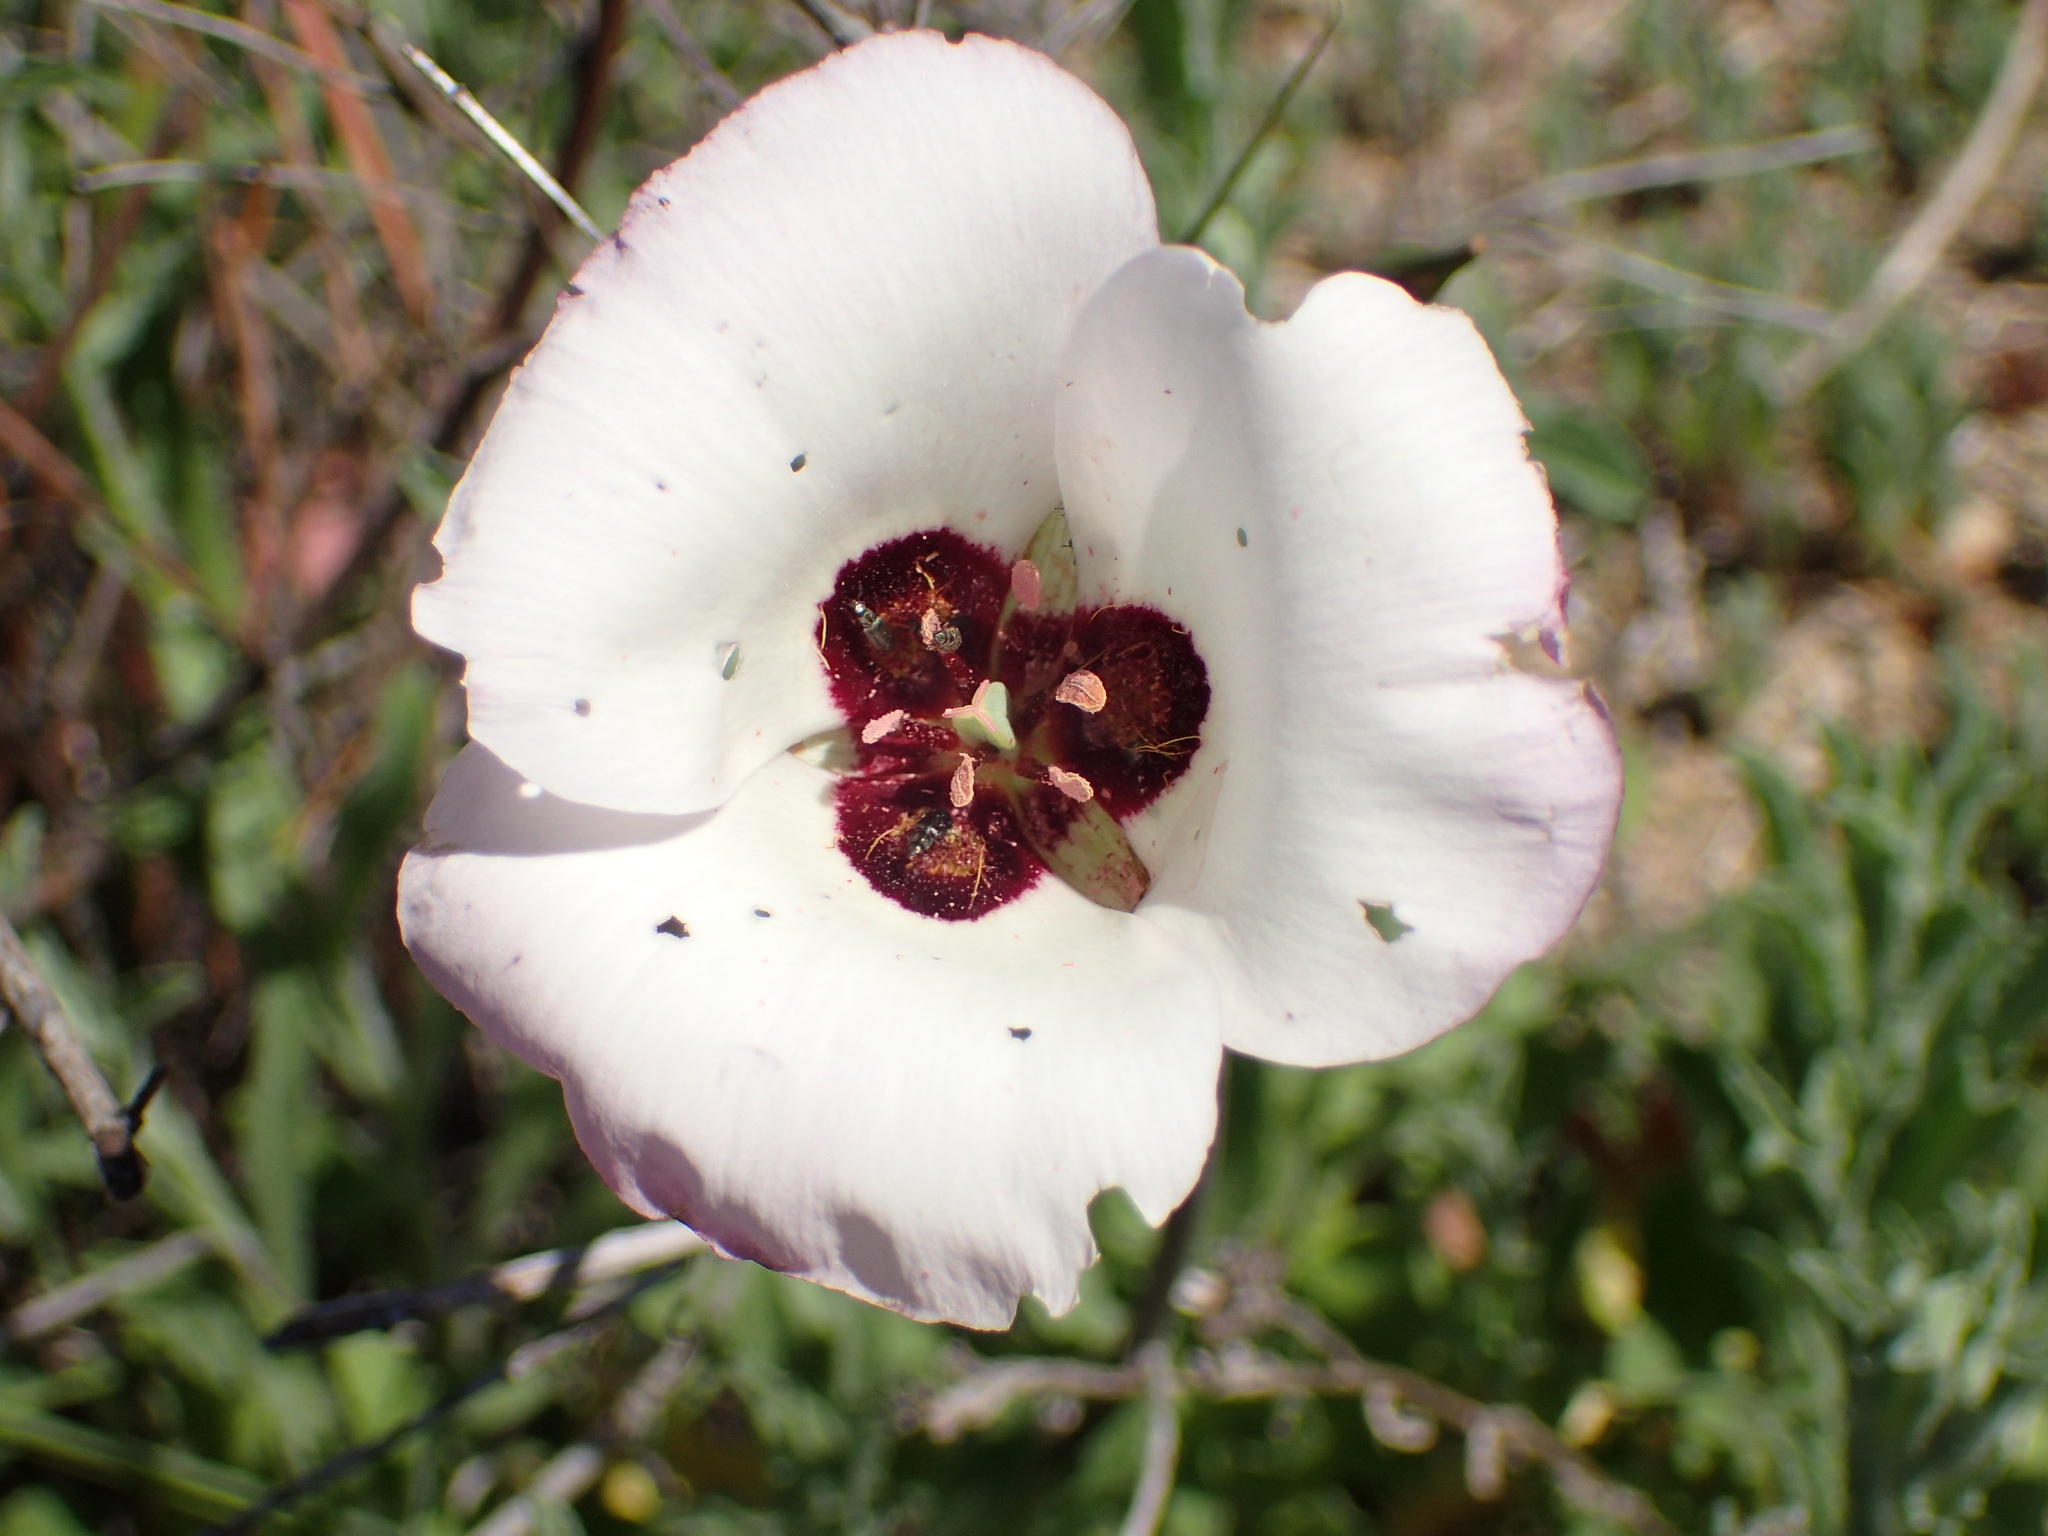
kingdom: Plantae
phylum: Tracheophyta
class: Liliopsida
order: Liliales
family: Liliaceae
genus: Calochortus
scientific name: Calochortus catalinae
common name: Catalina mariposa-lily
